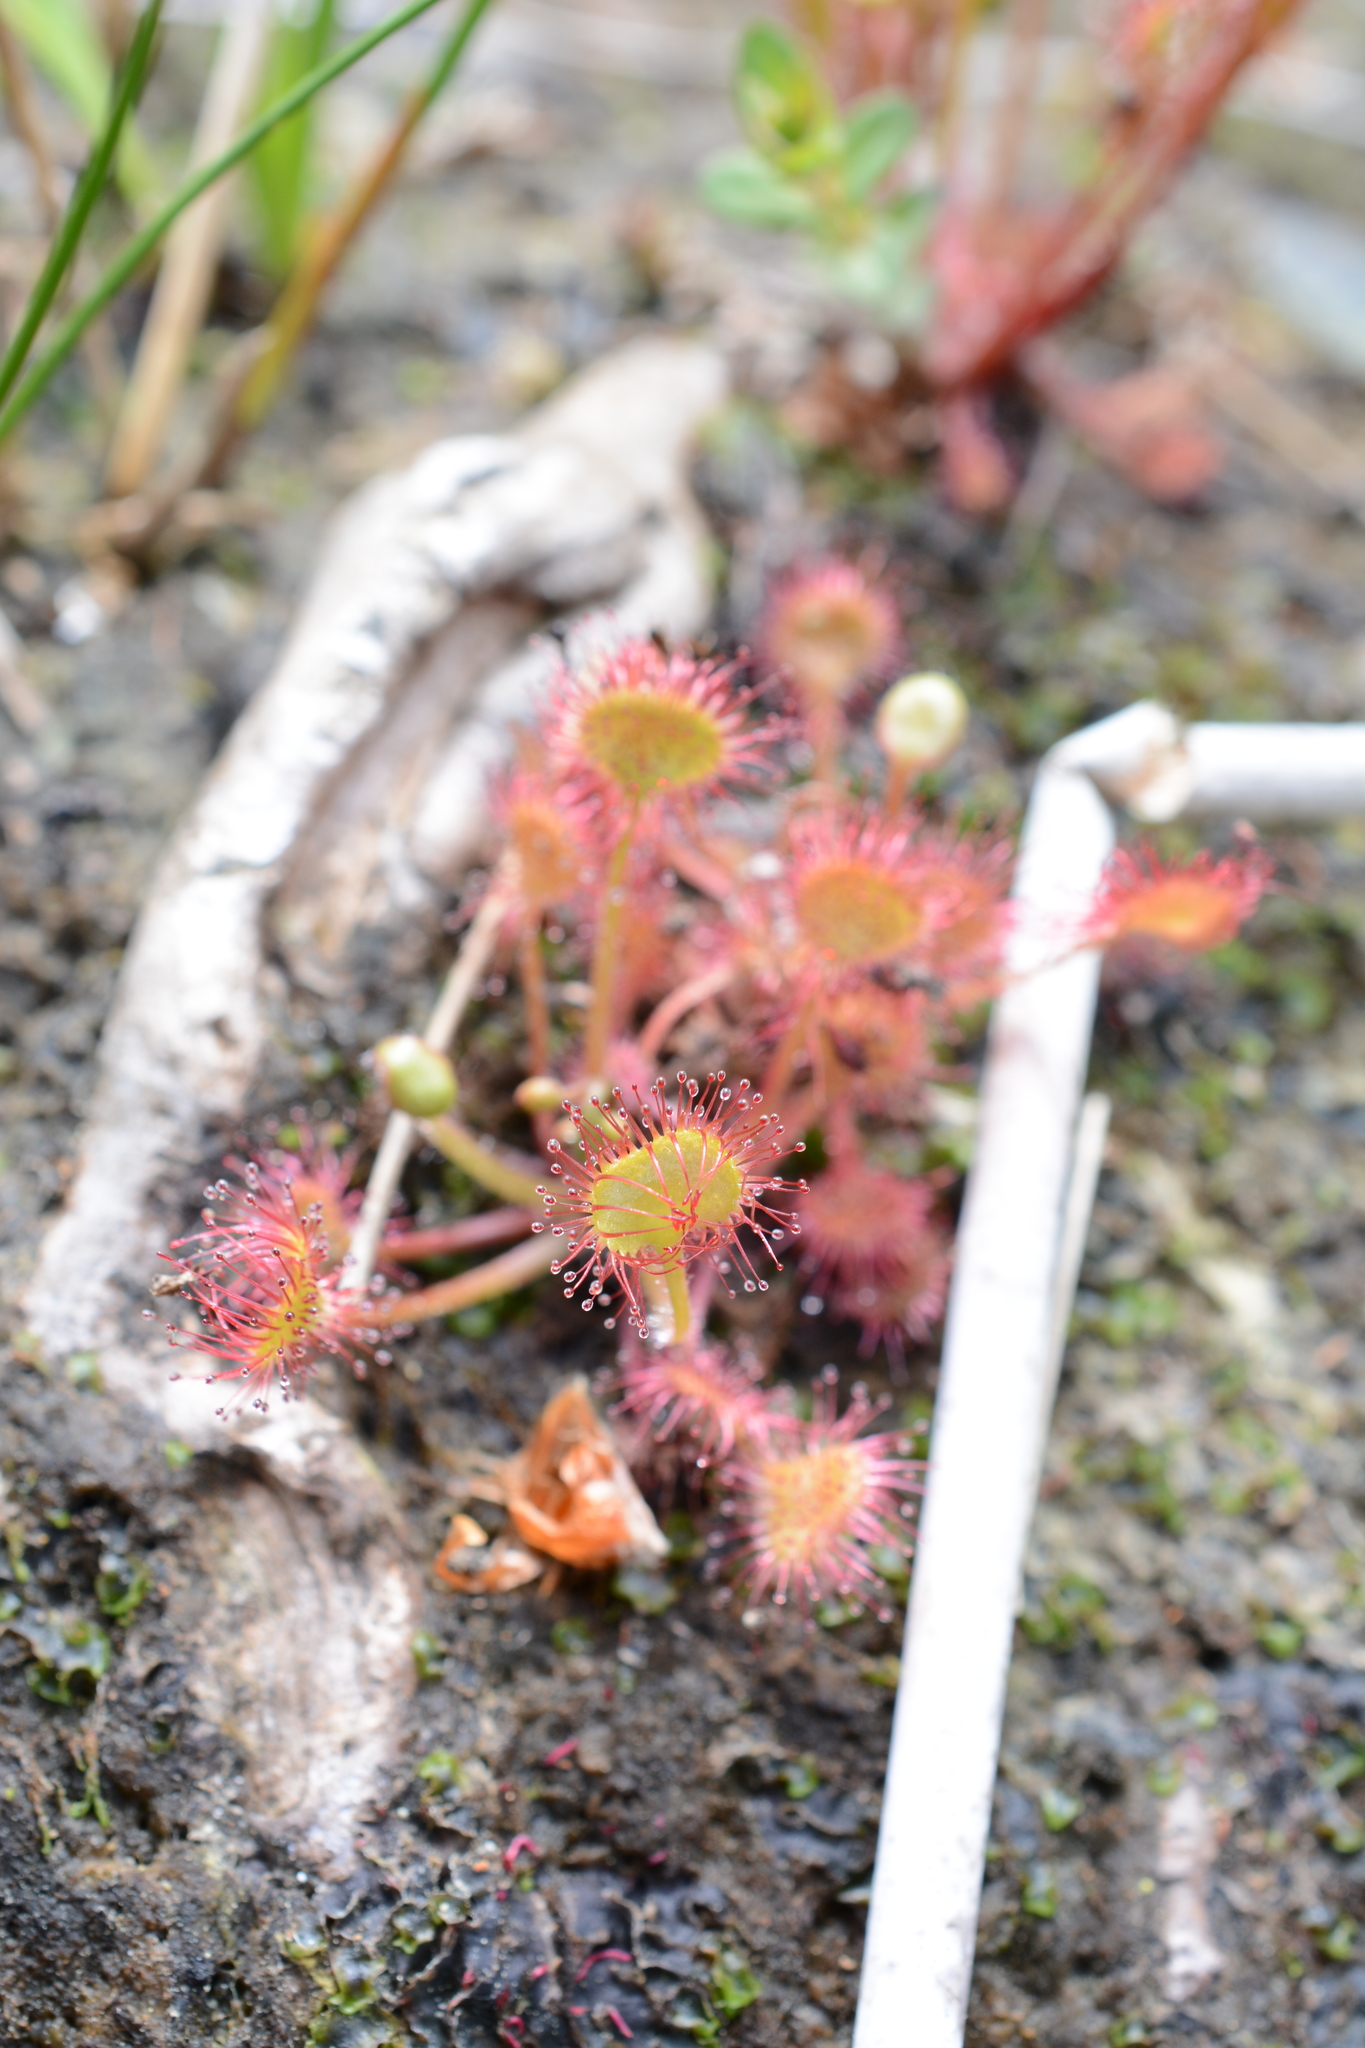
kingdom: Plantae
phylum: Tracheophyta
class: Magnoliopsida
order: Caryophyllales
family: Droseraceae
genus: Drosera
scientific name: Drosera rotundifolia
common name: Round-leaved sundew
